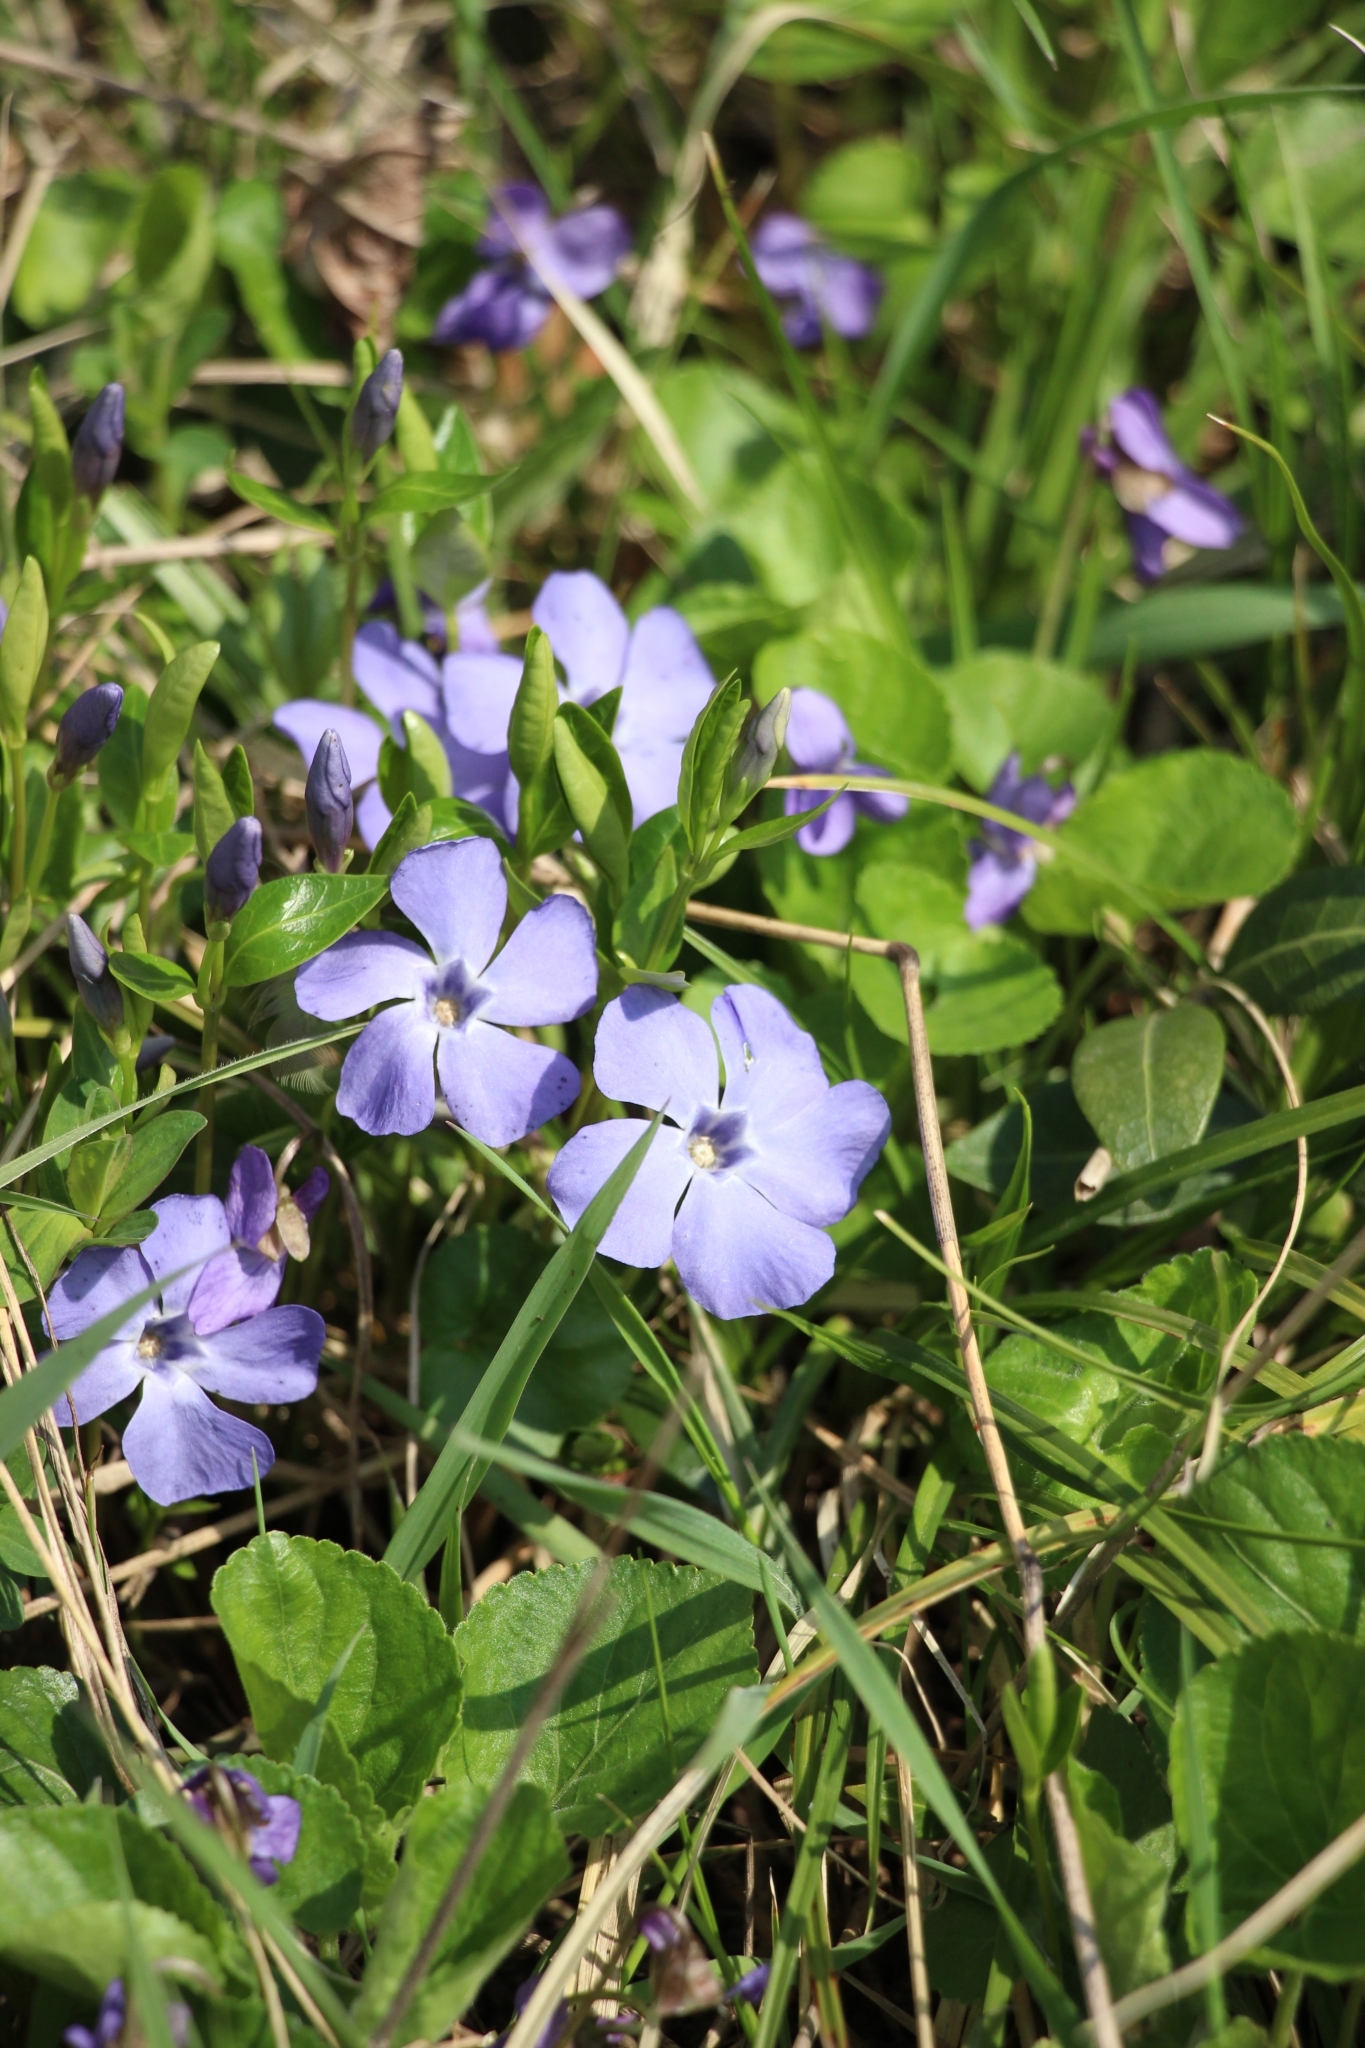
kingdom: Plantae
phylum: Tracheophyta
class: Magnoliopsida
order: Gentianales
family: Apocynaceae
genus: Vinca
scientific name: Vinca minor
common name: Lesser periwinkle
